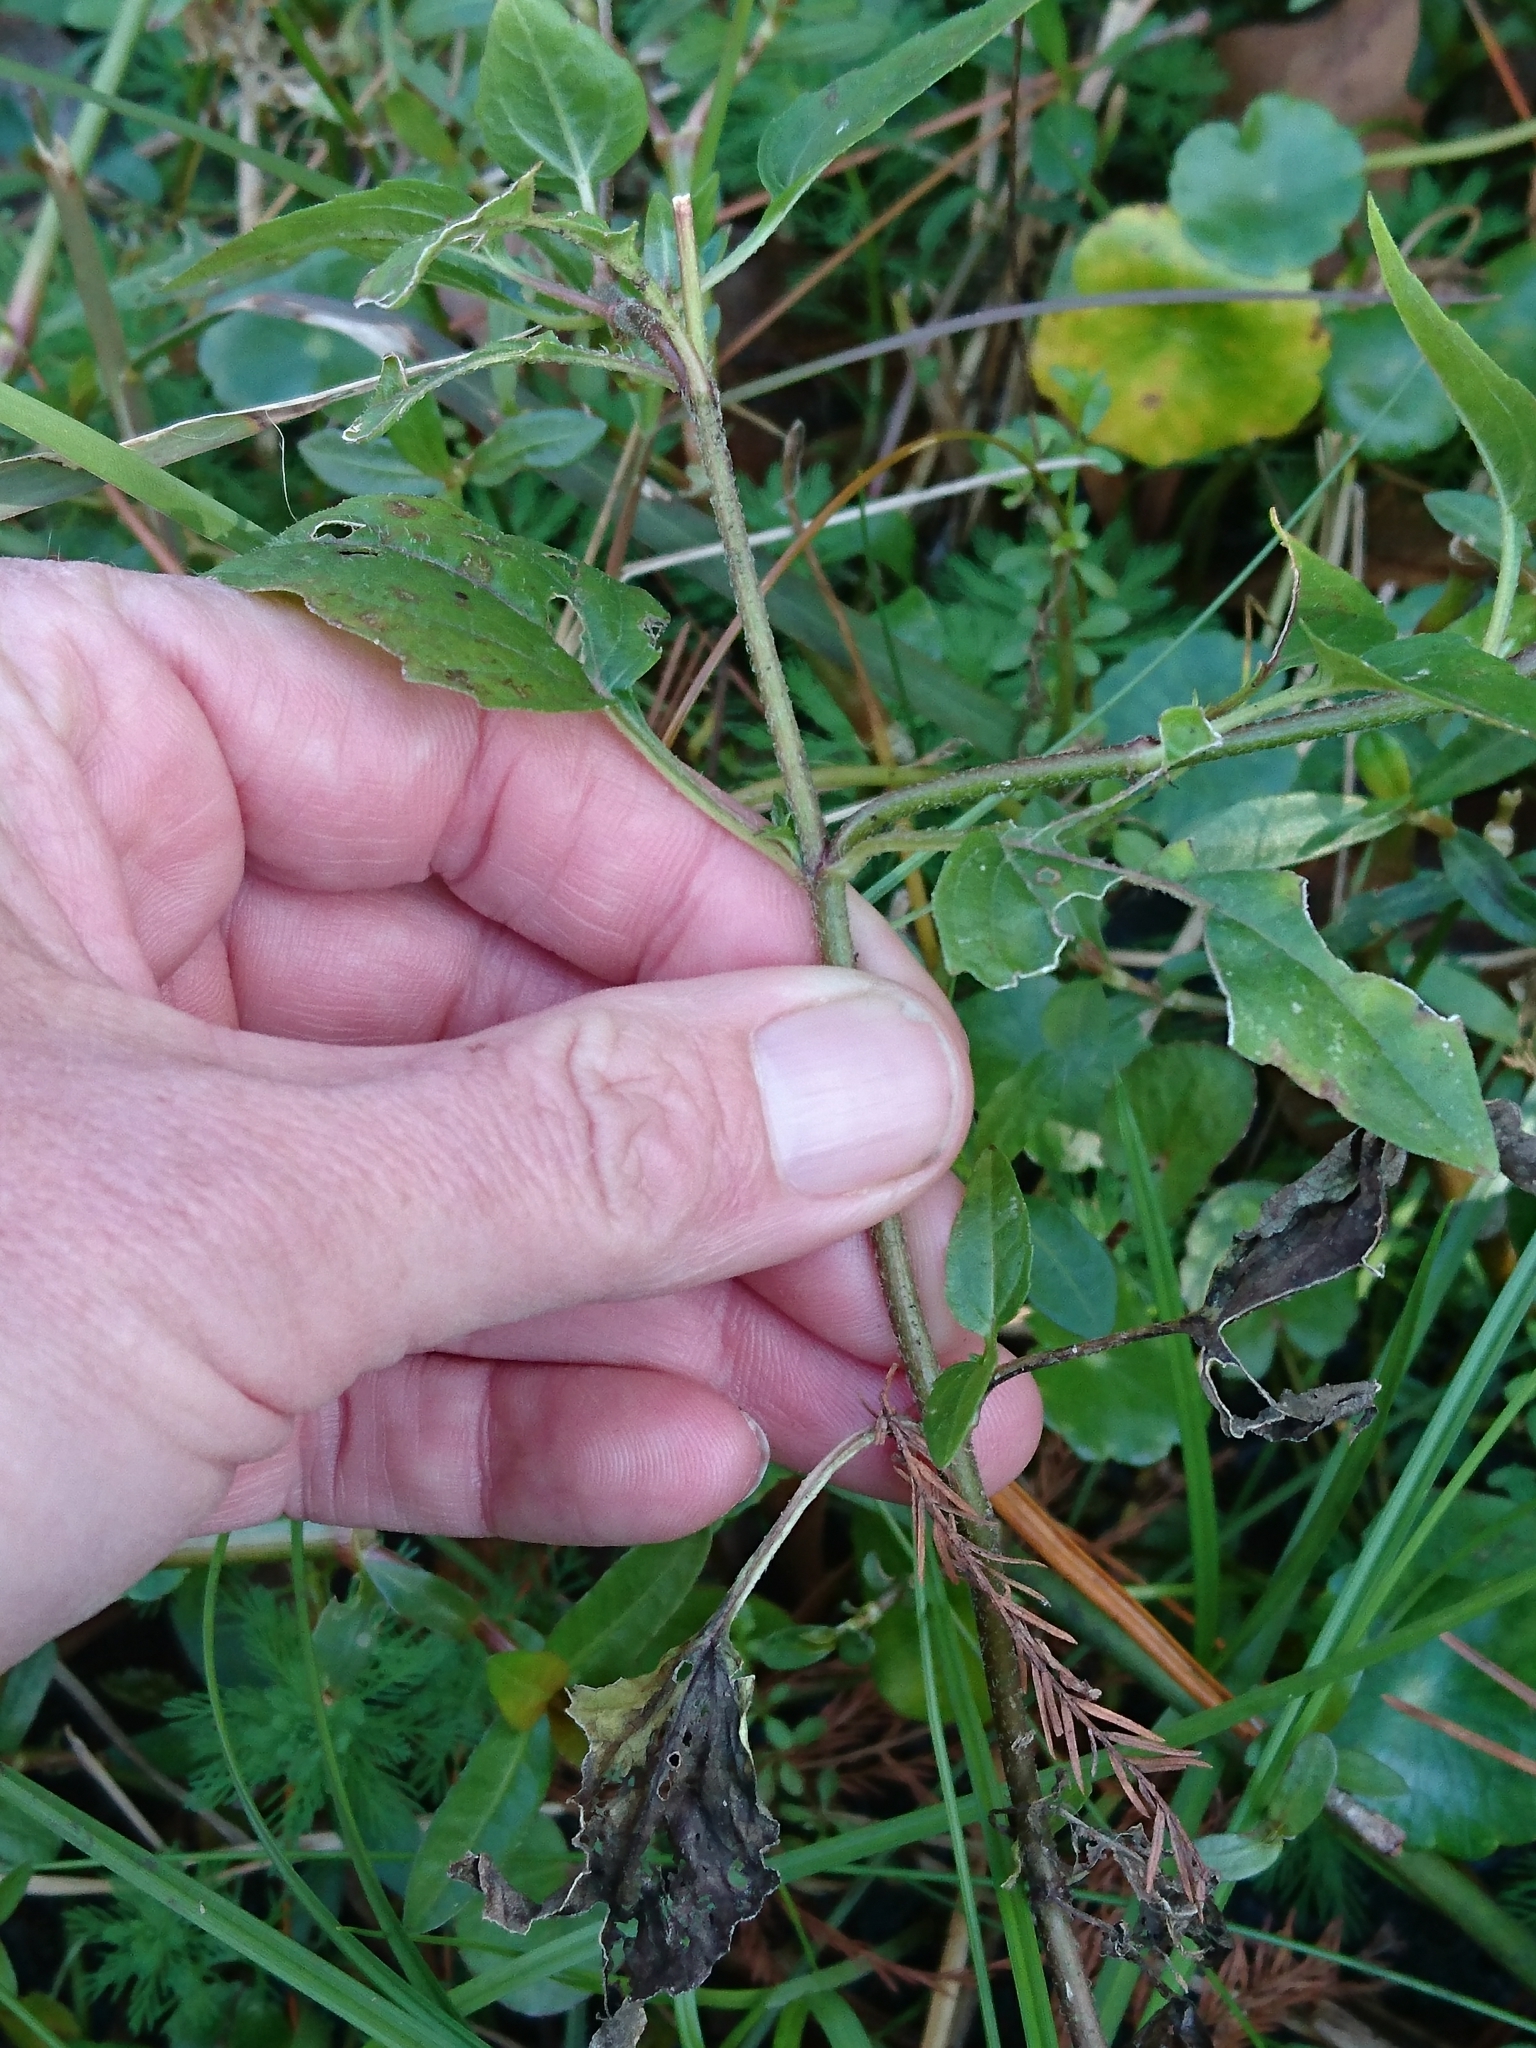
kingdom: Plantae
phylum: Tracheophyta
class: Magnoliopsida
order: Asterales
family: Asteraceae
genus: Sphagneticola
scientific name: Sphagneticola trilobata
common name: Bay biscayne creeping-oxeye
